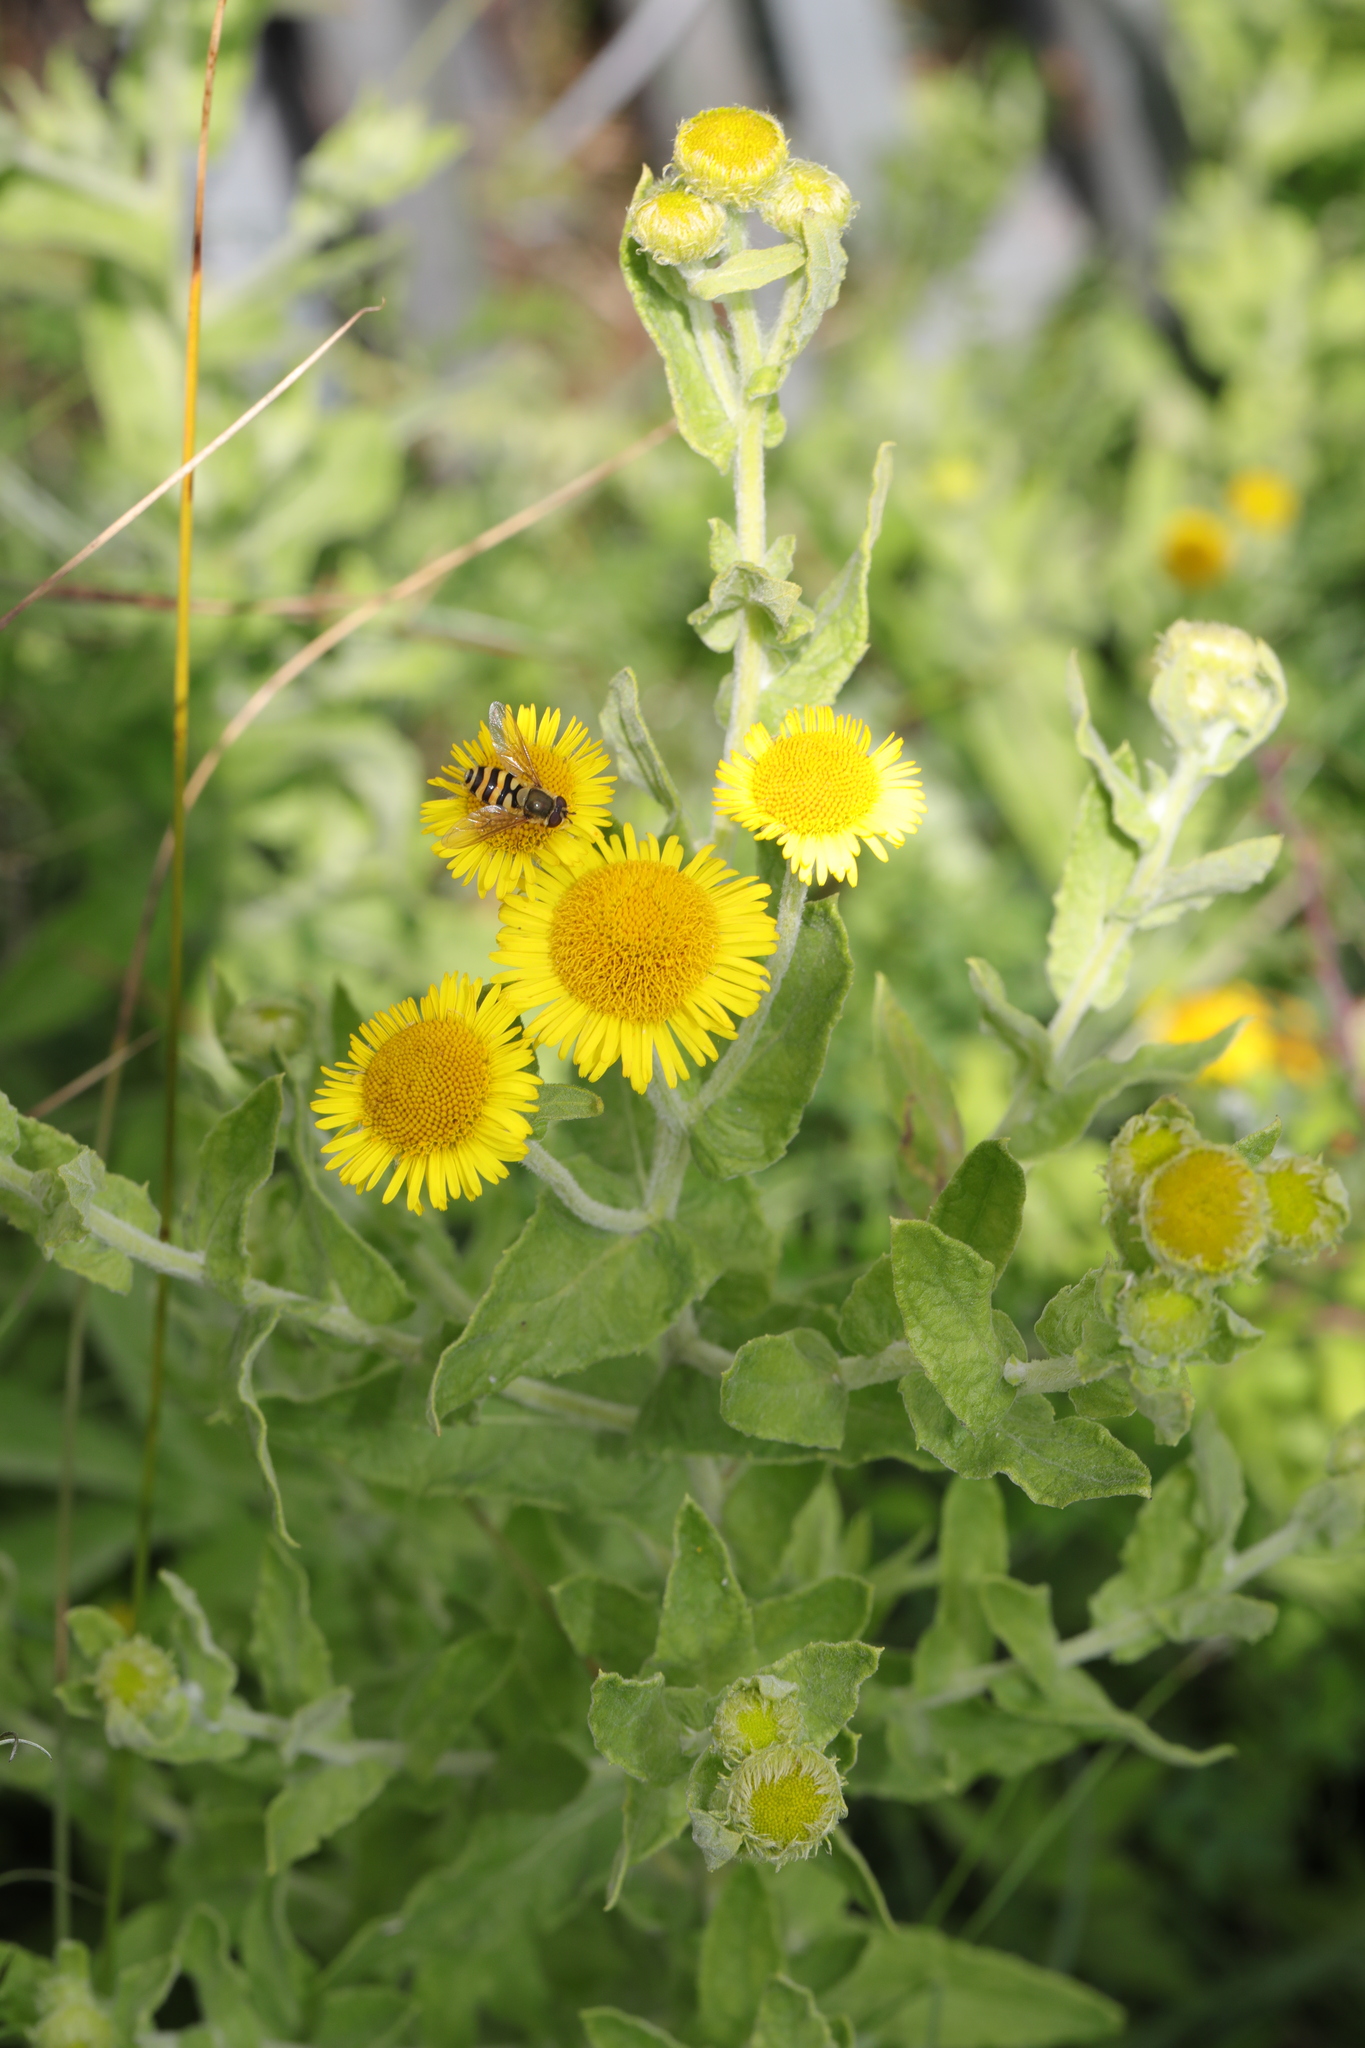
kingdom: Plantae
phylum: Tracheophyta
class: Magnoliopsida
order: Asterales
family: Asteraceae
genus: Pulicaria
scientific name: Pulicaria dysenterica
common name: Common fleabane
